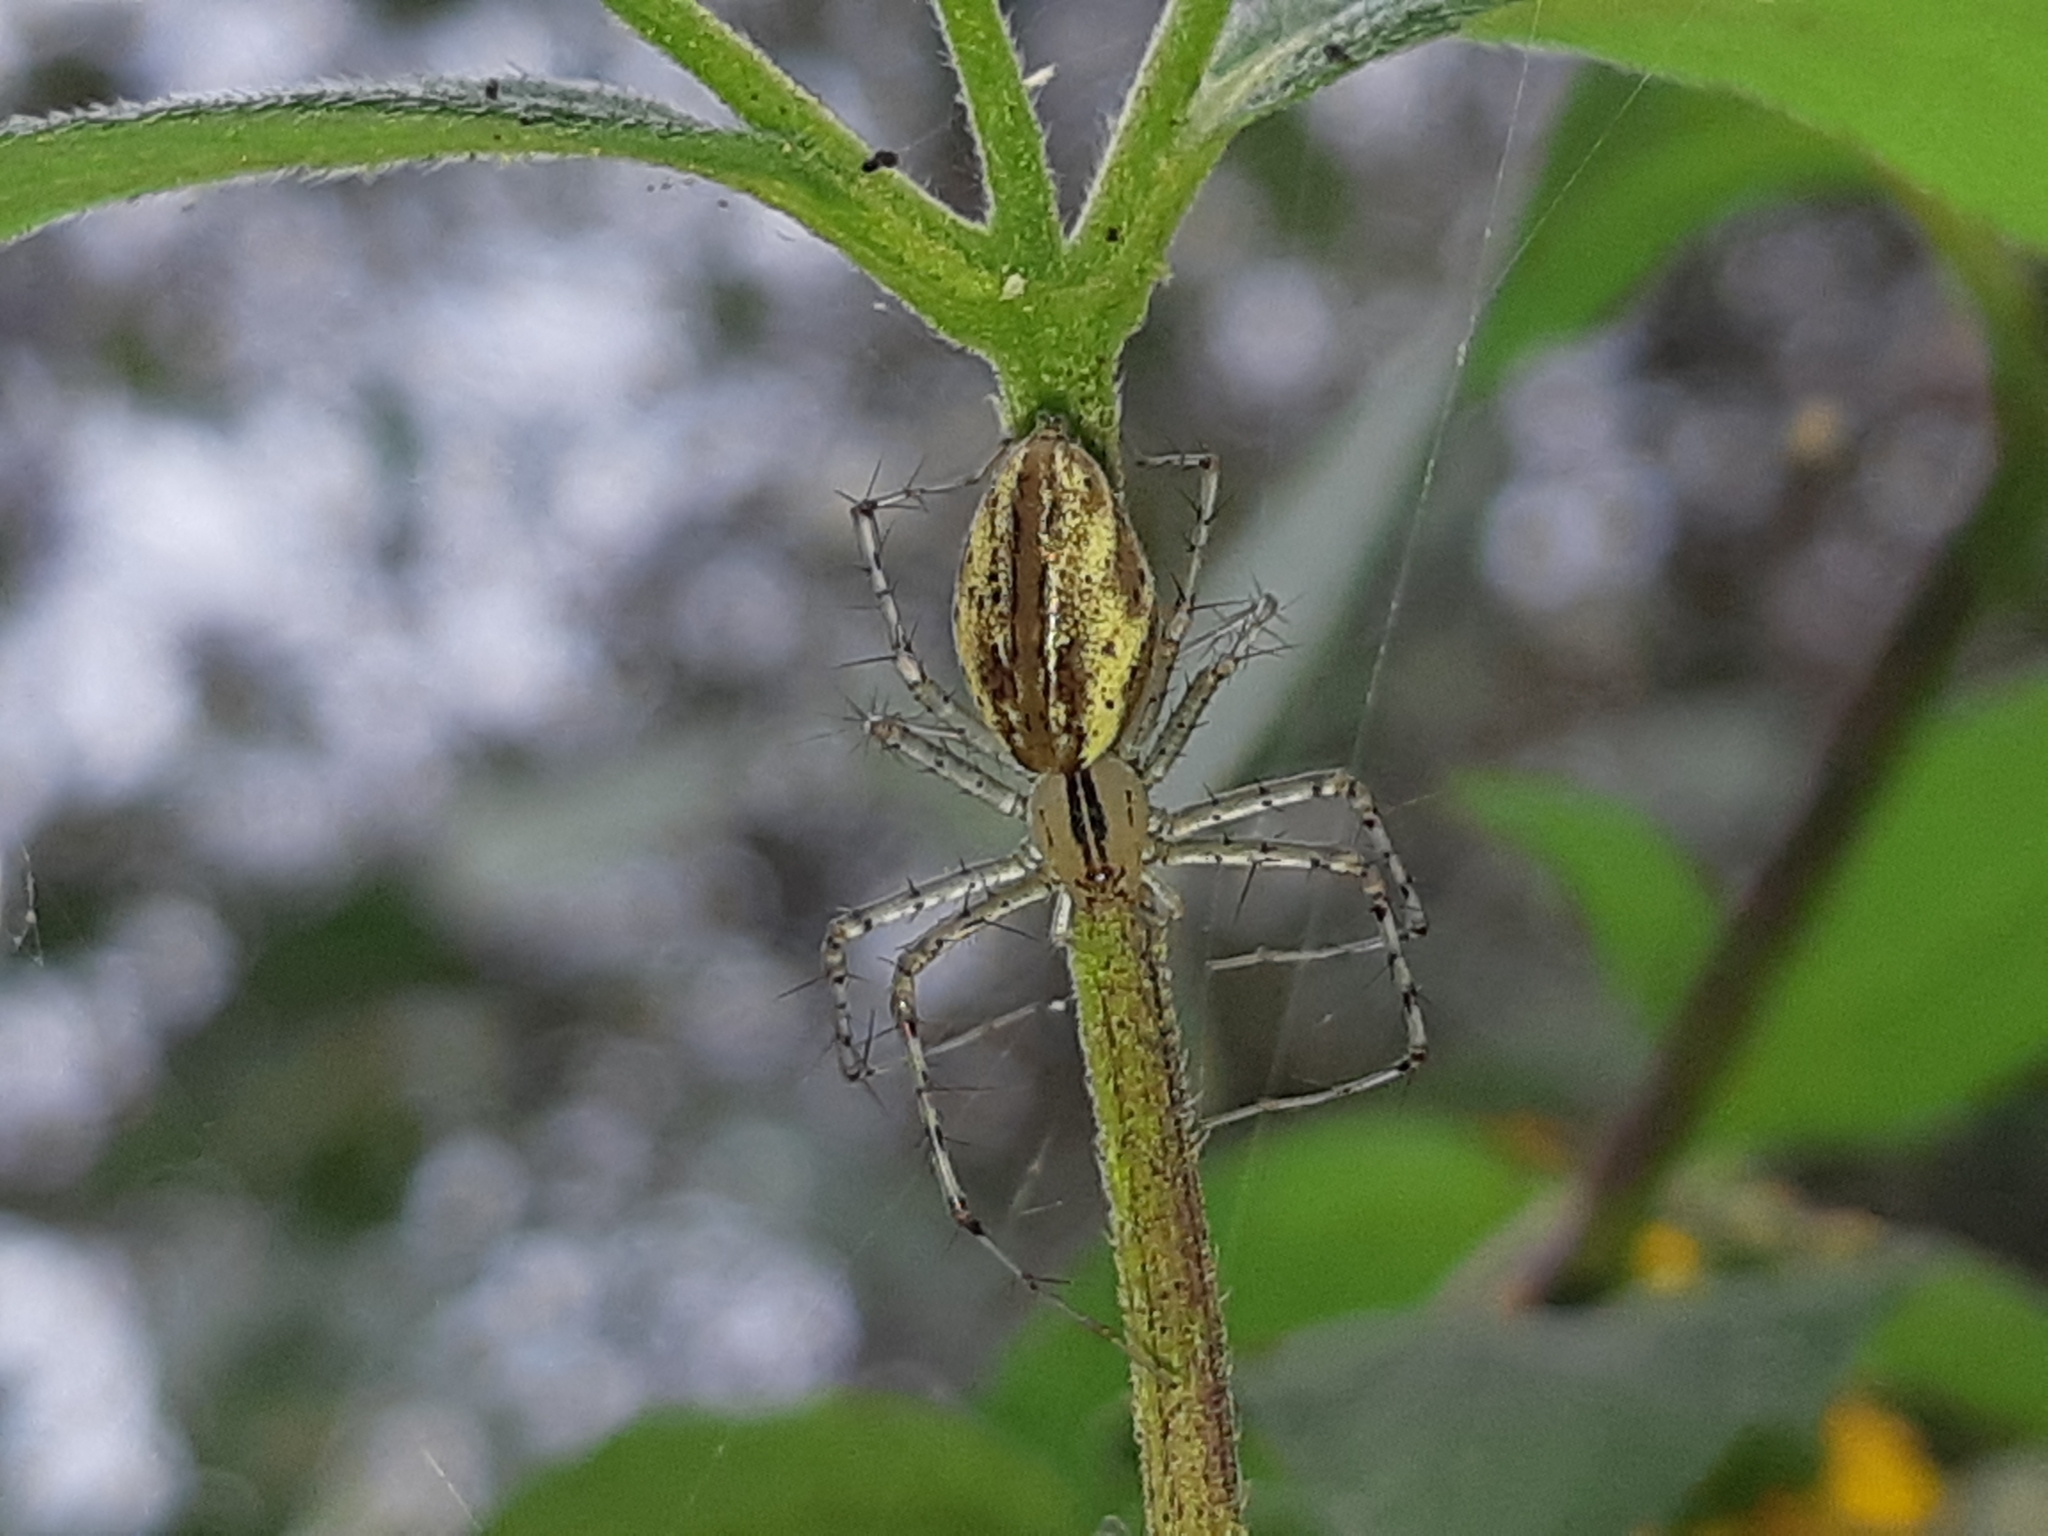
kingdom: Animalia
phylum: Arthropoda
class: Arachnida
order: Araneae
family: Oxyopidae
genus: Peucetia
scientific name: Peucetia rubrolineata
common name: Lynx spiders
